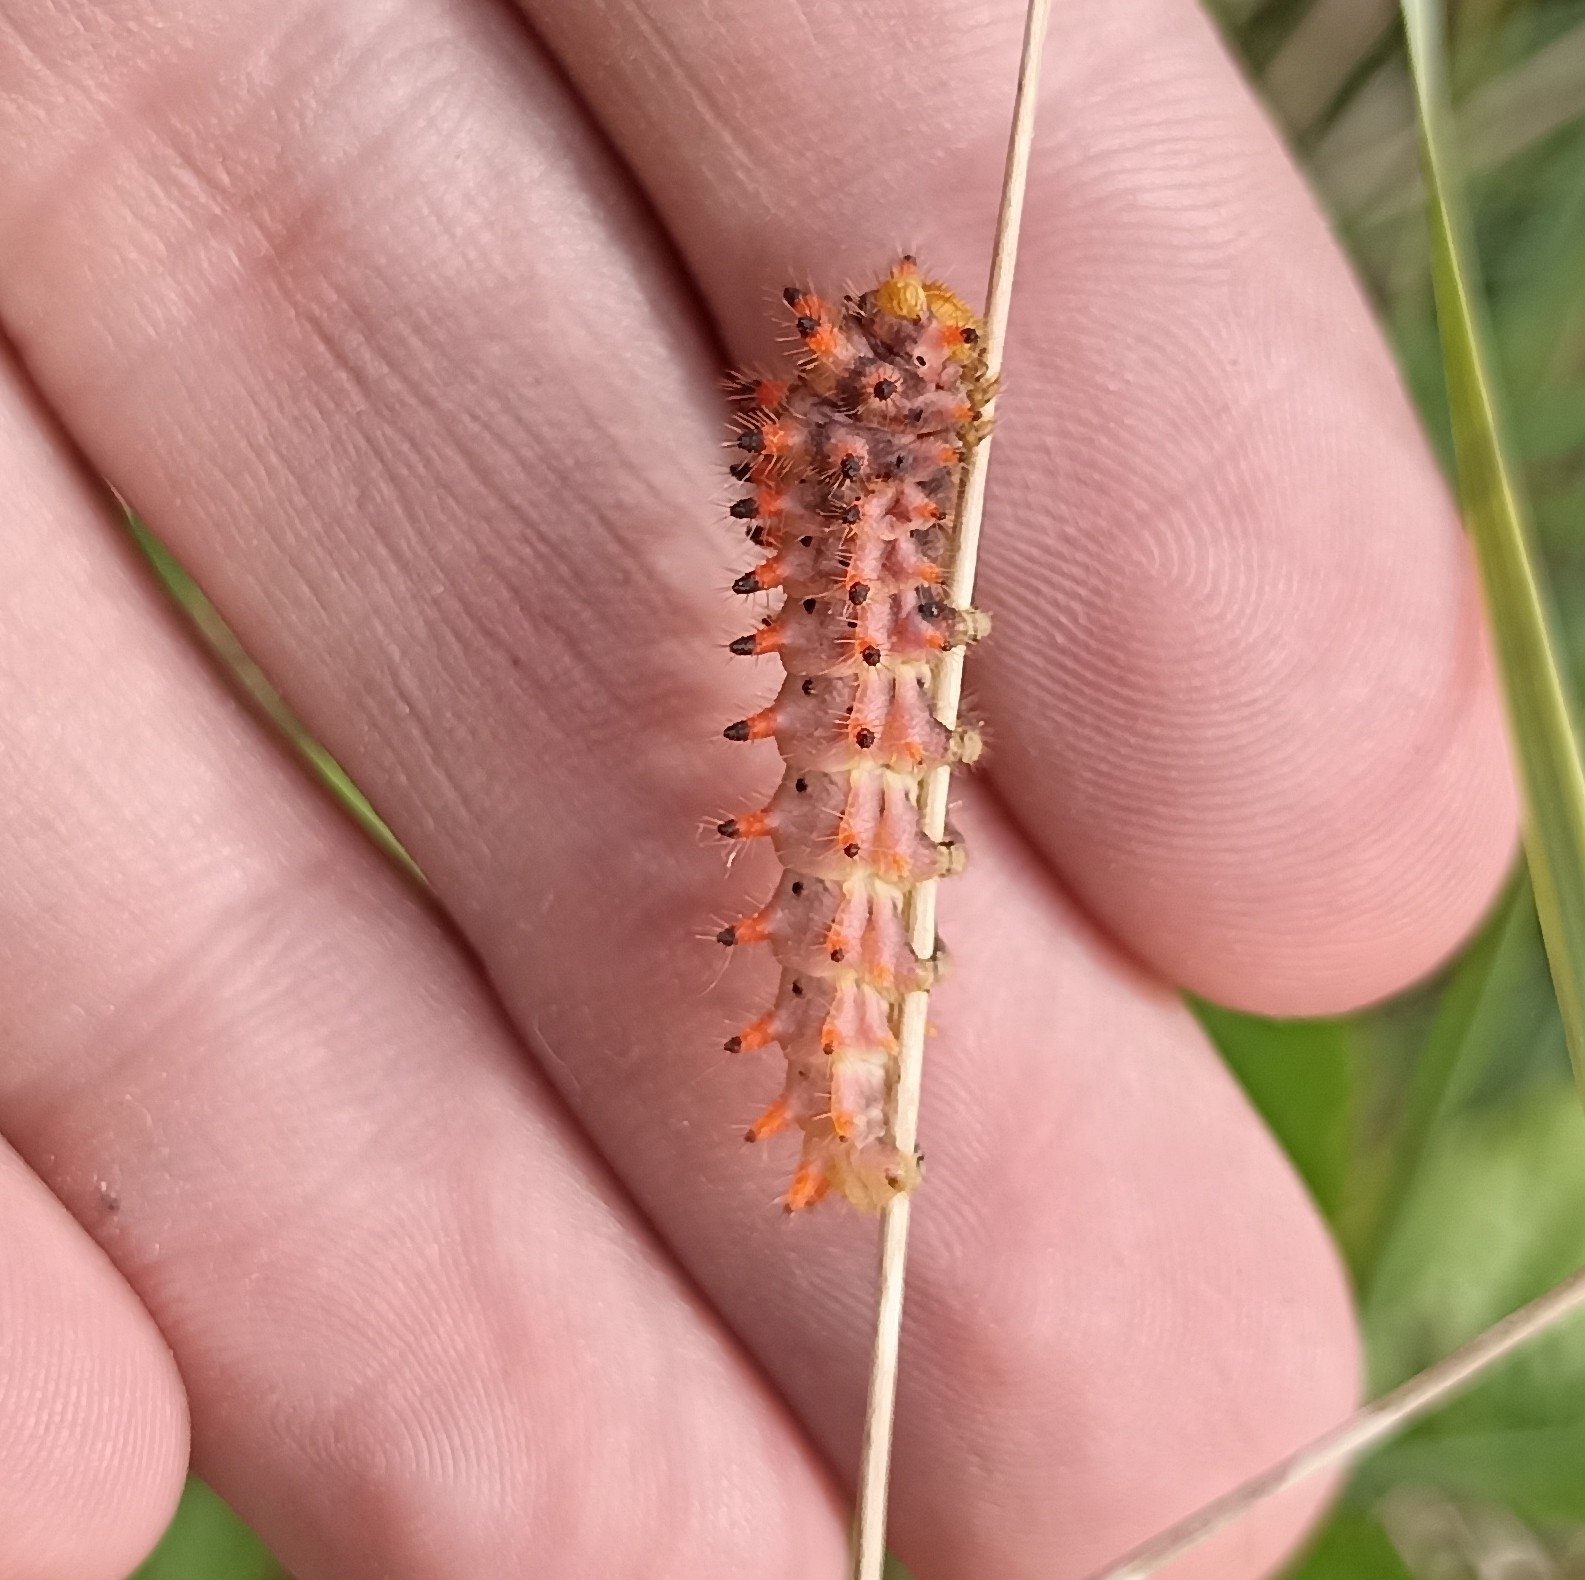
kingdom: Animalia
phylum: Arthropoda
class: Insecta
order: Lepidoptera
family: Papilionidae
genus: Zerynthia
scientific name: Zerynthia polyxena
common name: Southern festoon
